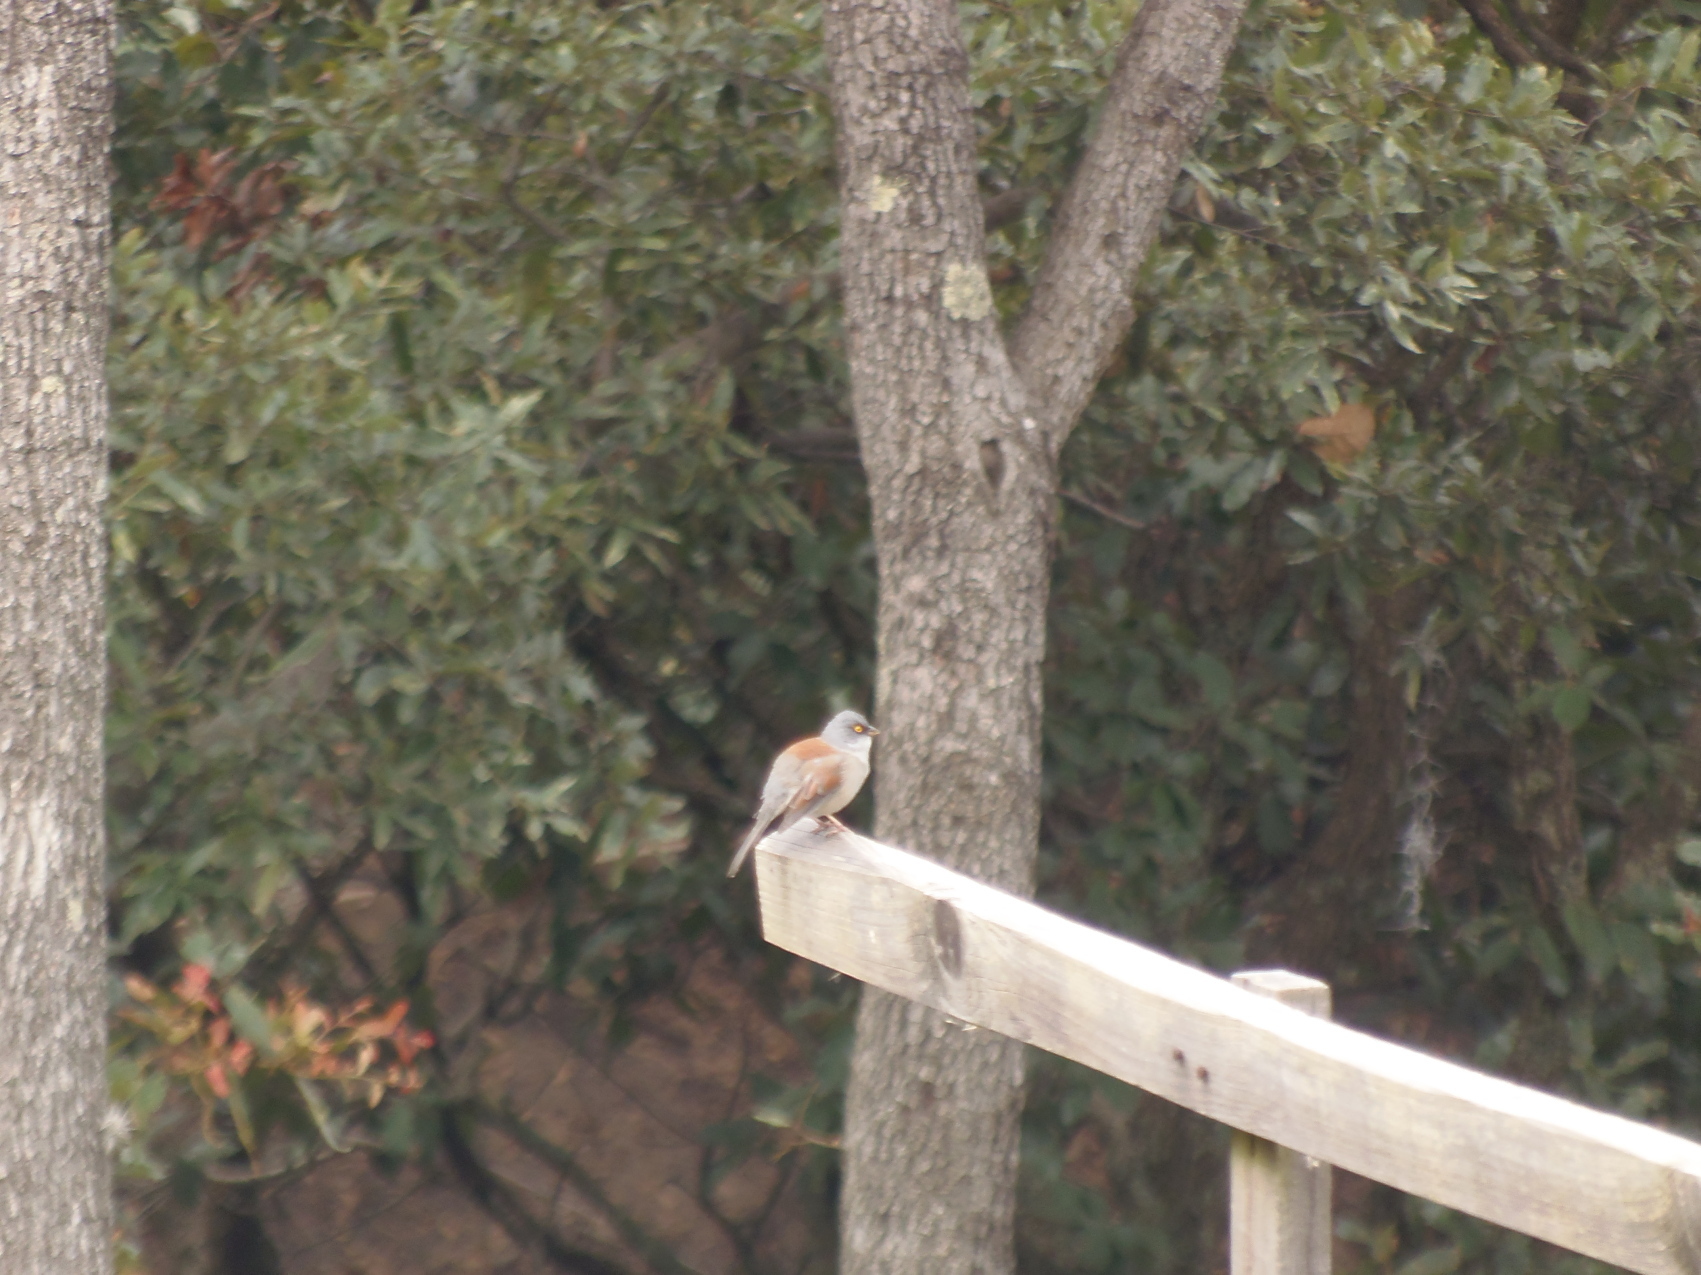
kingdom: Animalia
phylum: Chordata
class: Aves
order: Passeriformes
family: Passerellidae
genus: Junco
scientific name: Junco phaeonotus
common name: Yellow-eyed junco
